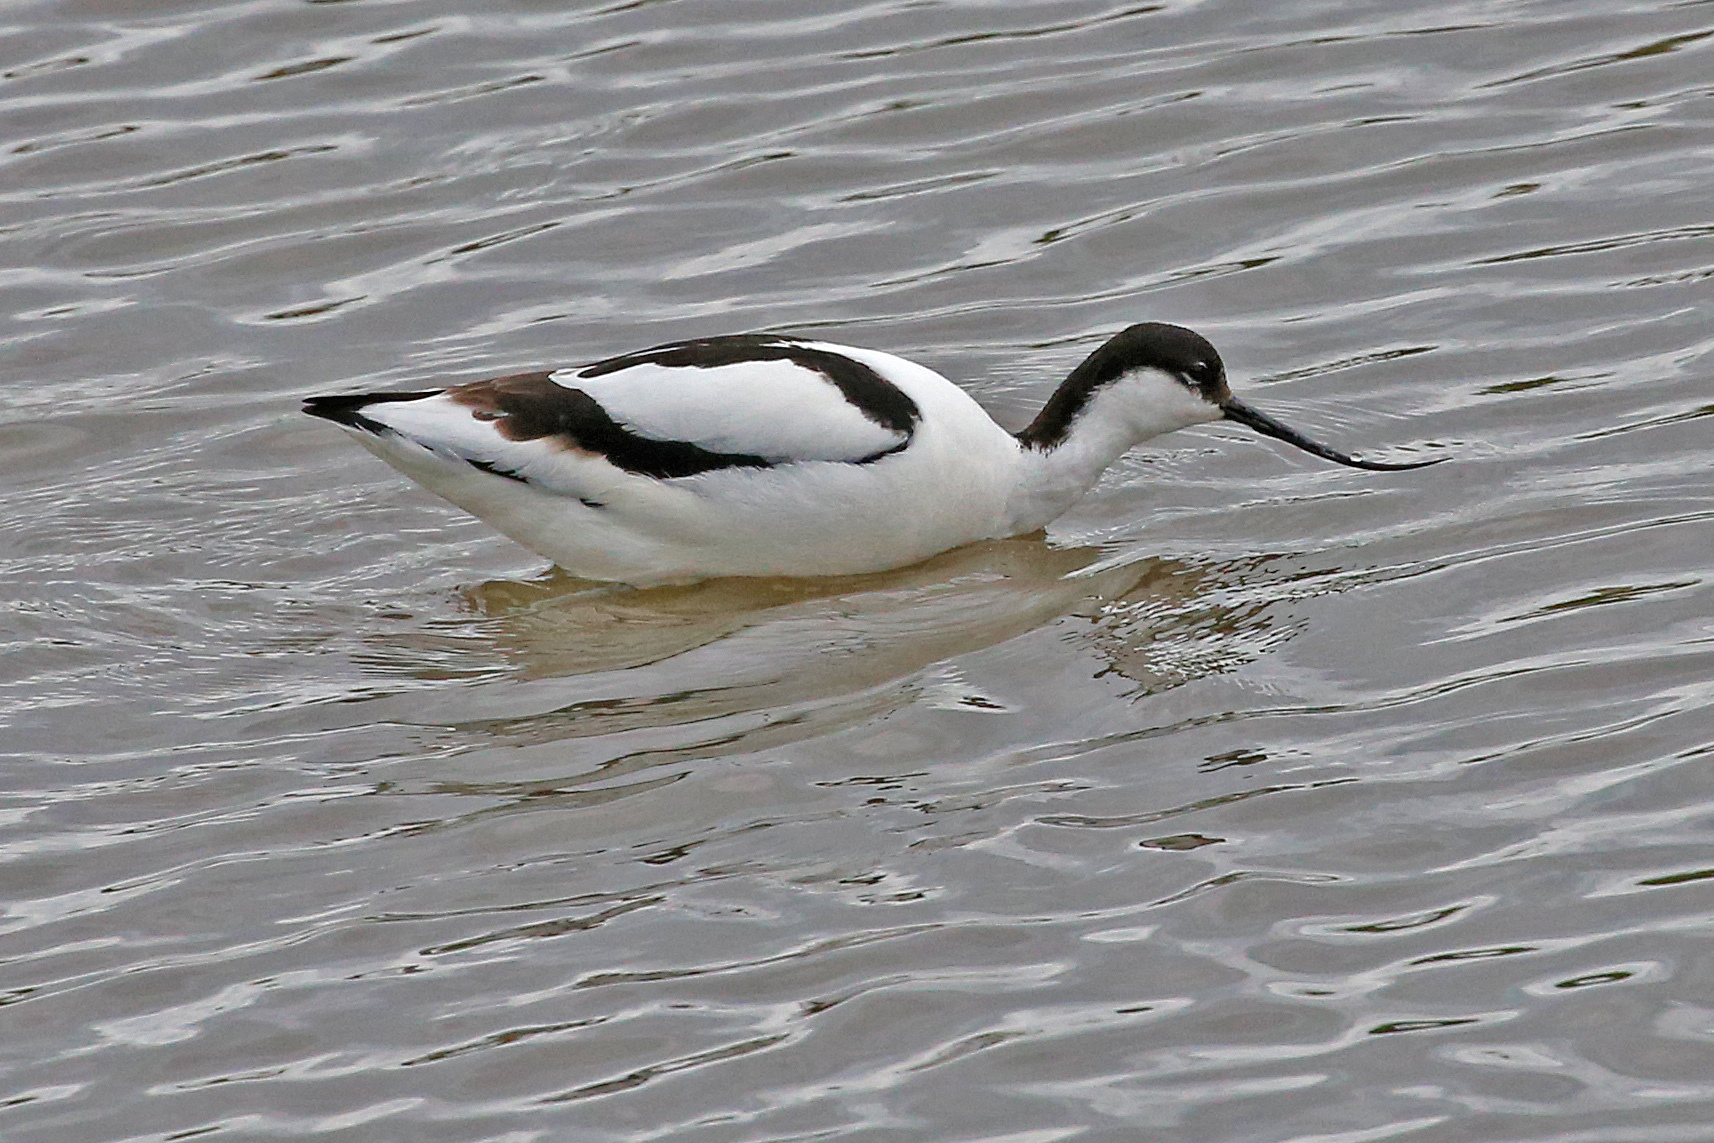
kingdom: Animalia
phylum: Chordata
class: Aves
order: Charadriiformes
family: Recurvirostridae
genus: Recurvirostra
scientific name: Recurvirostra avosetta
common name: Pied avocet
